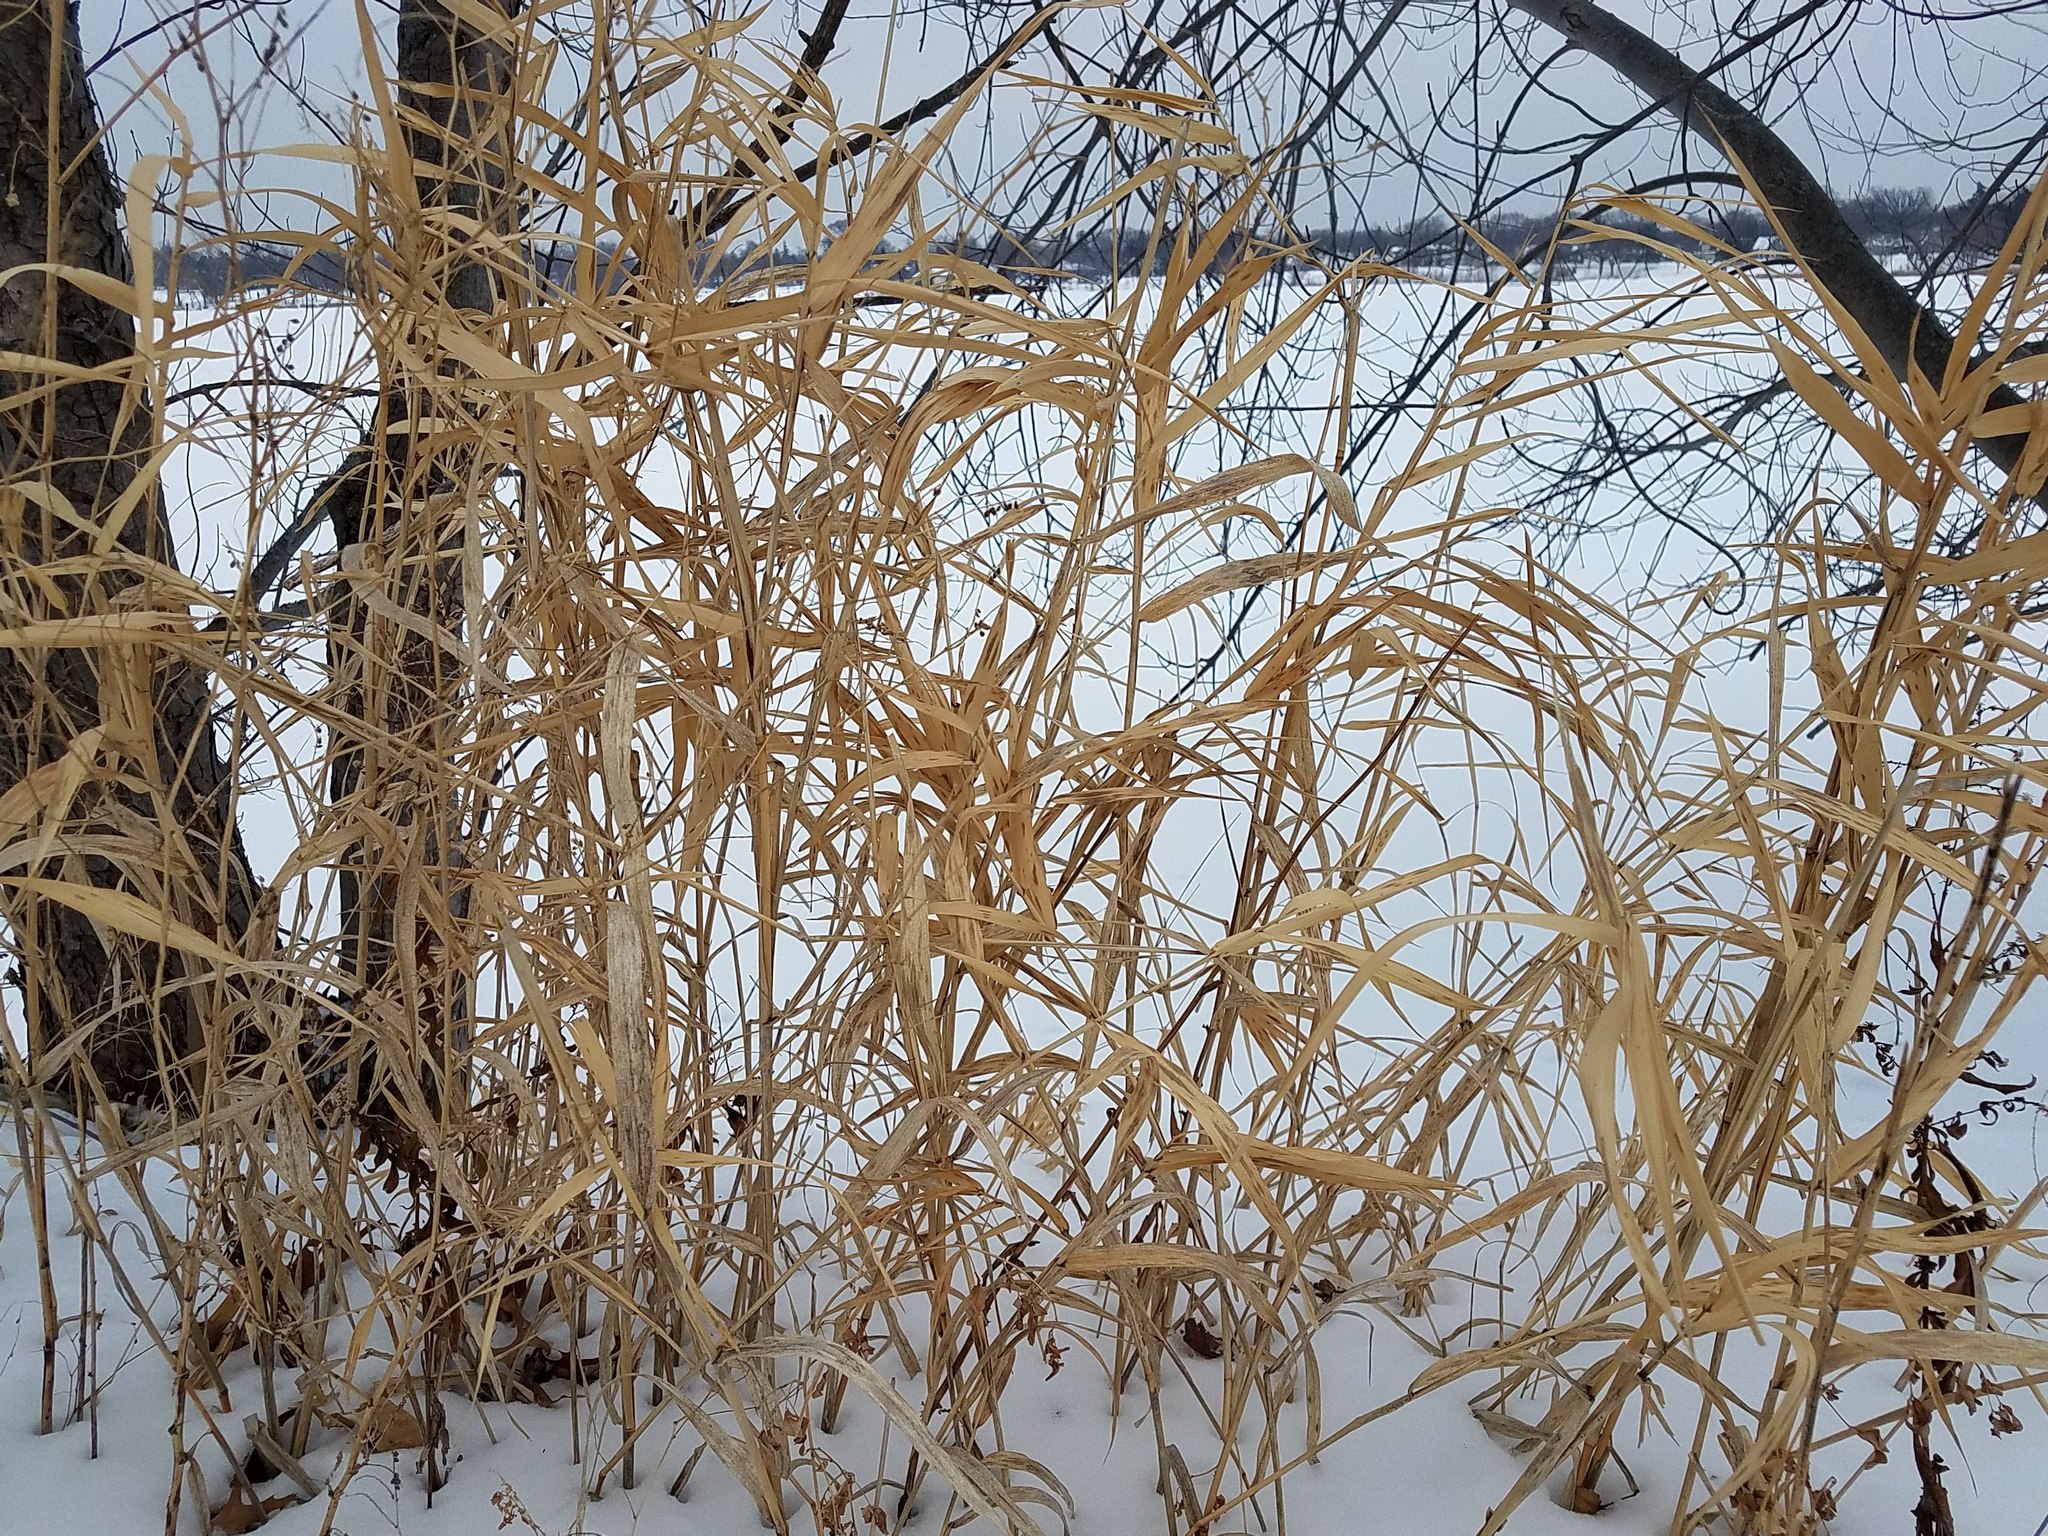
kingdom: Plantae
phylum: Tracheophyta
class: Liliopsida
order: Poales
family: Poaceae
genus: Phalaris
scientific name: Phalaris arundinacea
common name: Reed canary-grass
